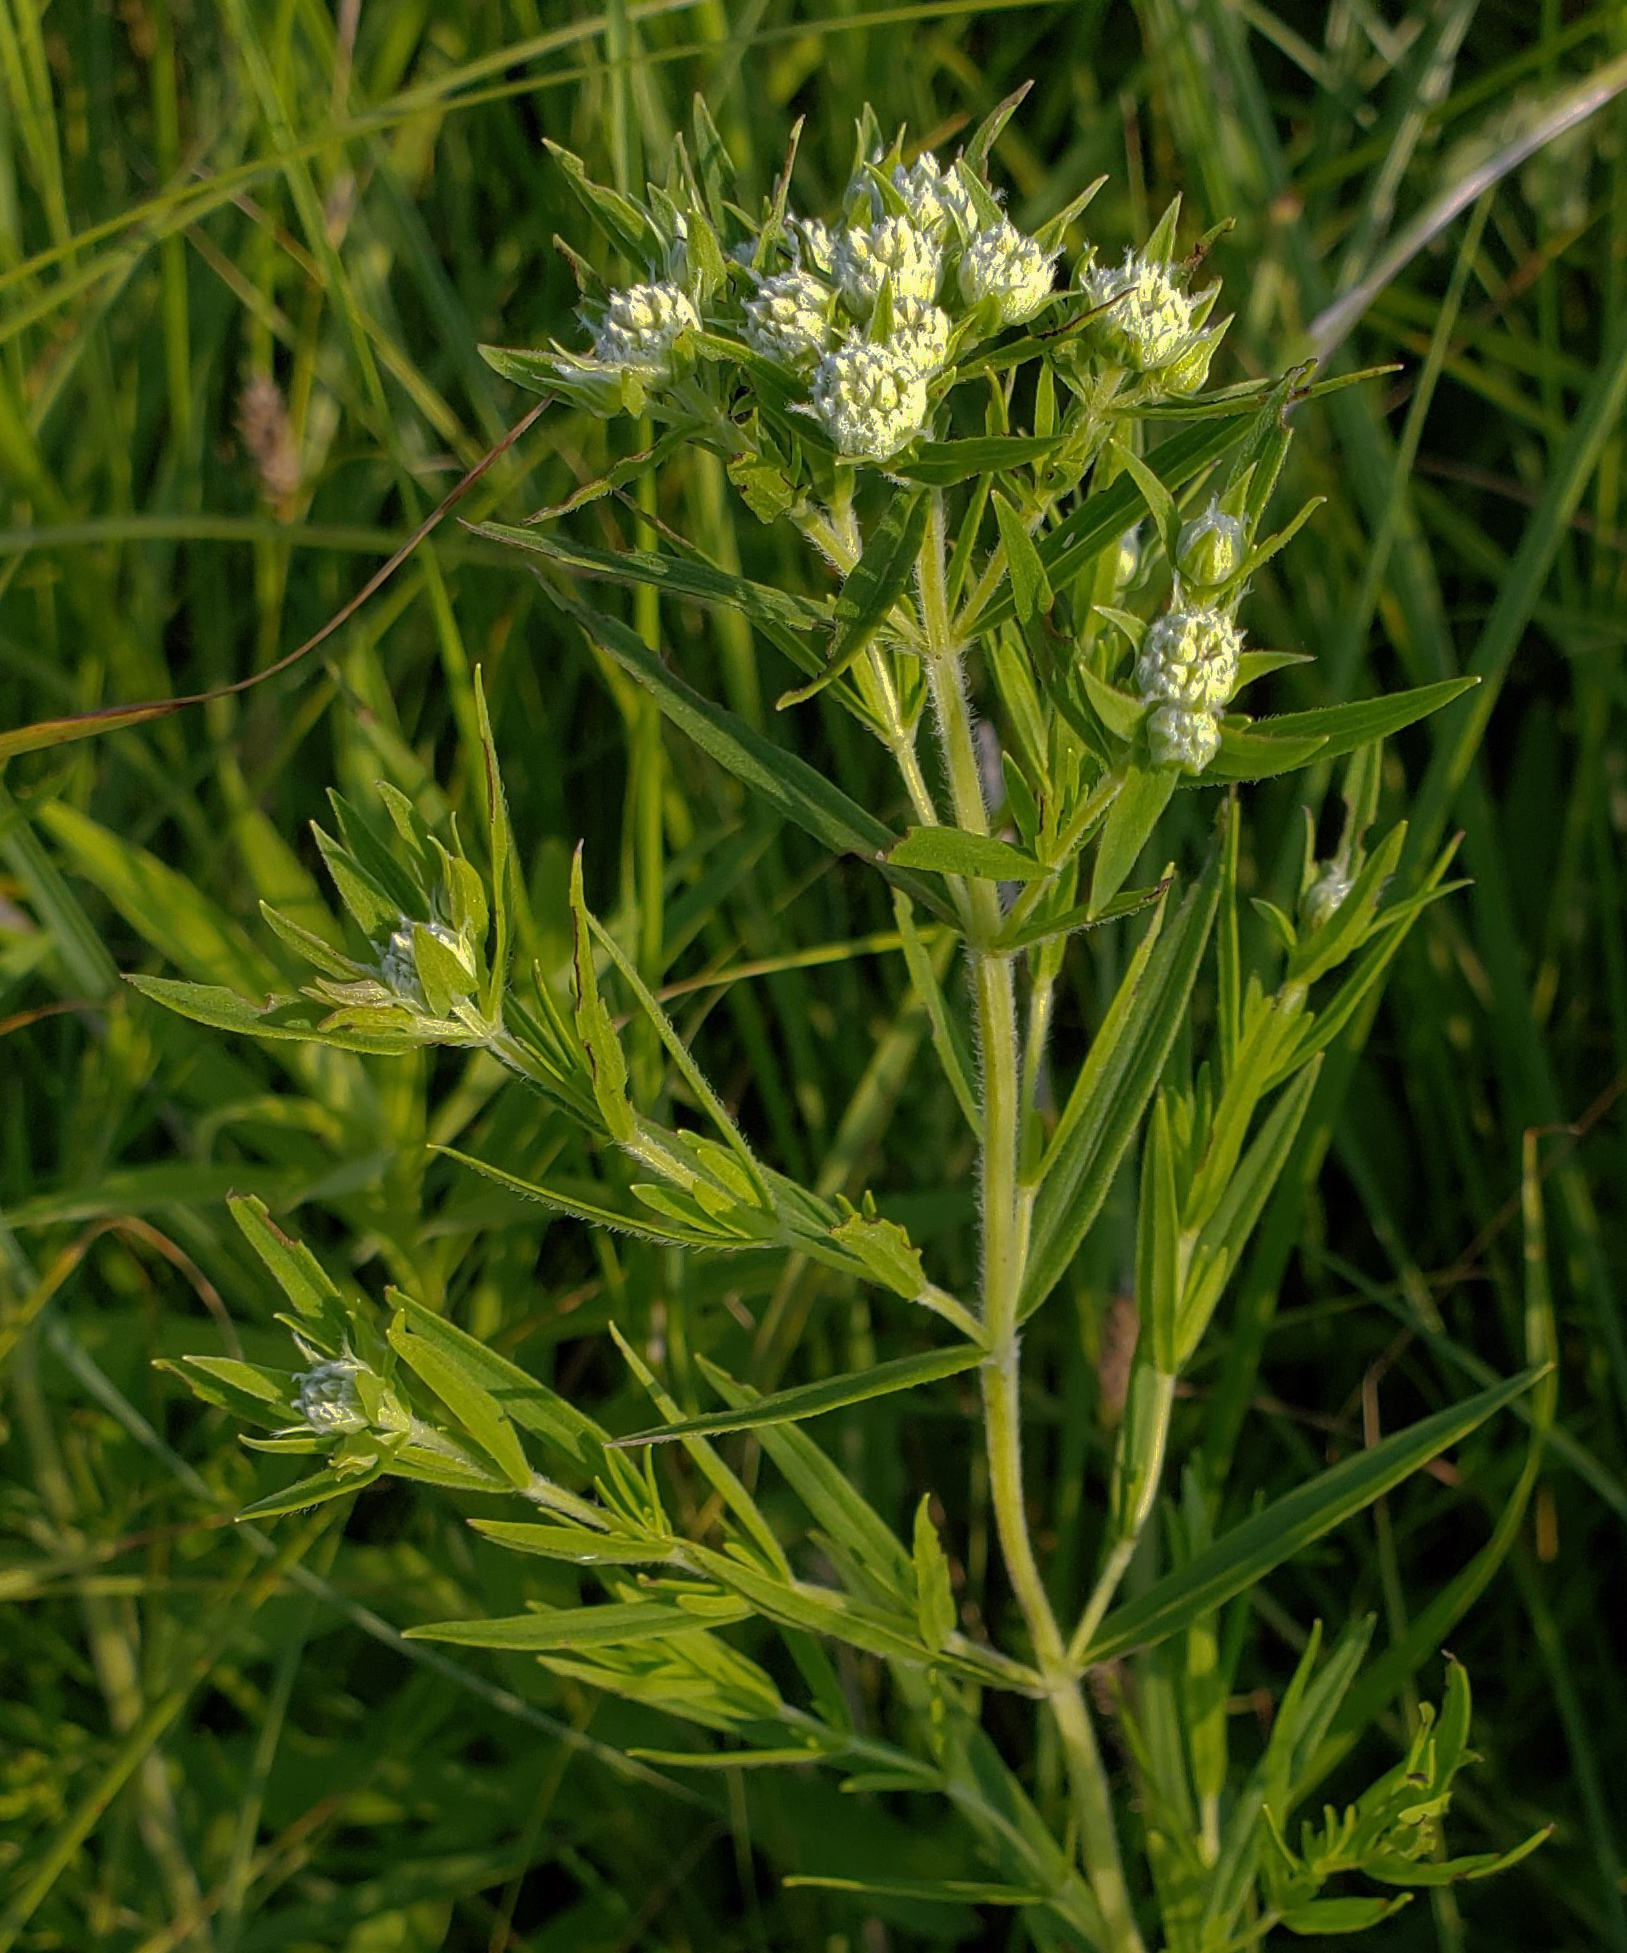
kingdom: Plantae
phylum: Tracheophyta
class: Magnoliopsida
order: Lamiales
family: Lamiaceae
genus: Pycnanthemum
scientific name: Pycnanthemum virginianum
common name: Virginia mountain-mint
